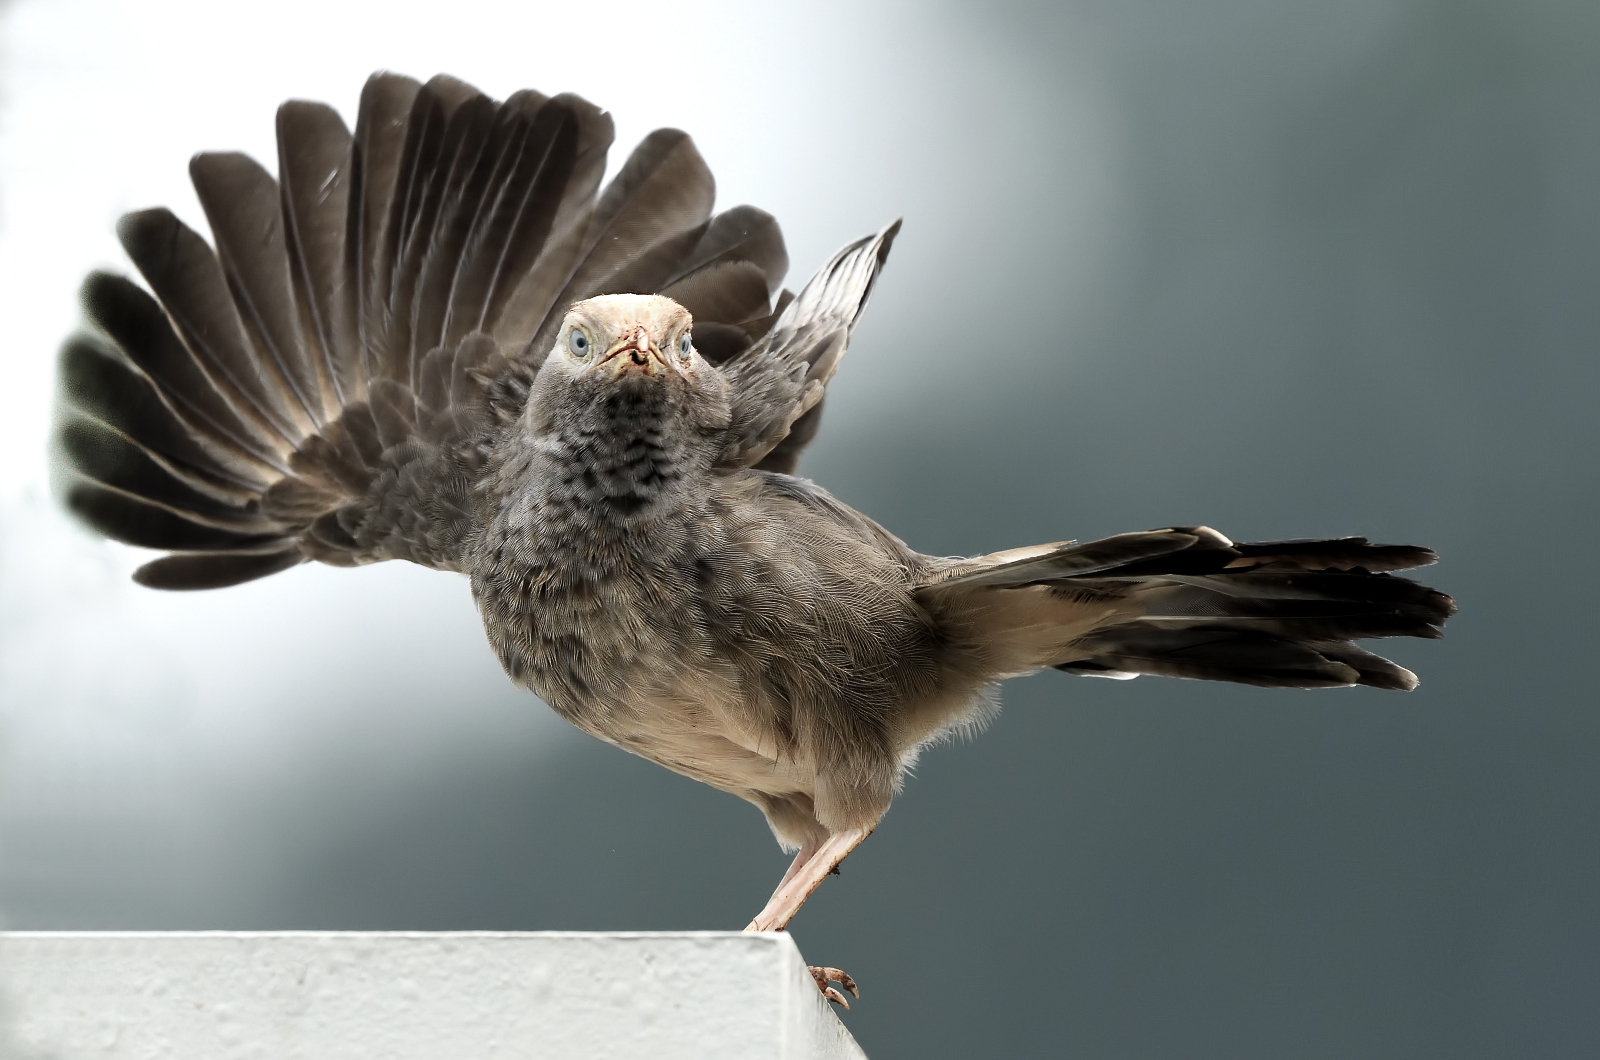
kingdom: Animalia
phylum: Chordata
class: Aves
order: Passeriformes
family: Leiothrichidae
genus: Turdoides
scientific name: Turdoides affinis
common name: Yellow-billed babbler
